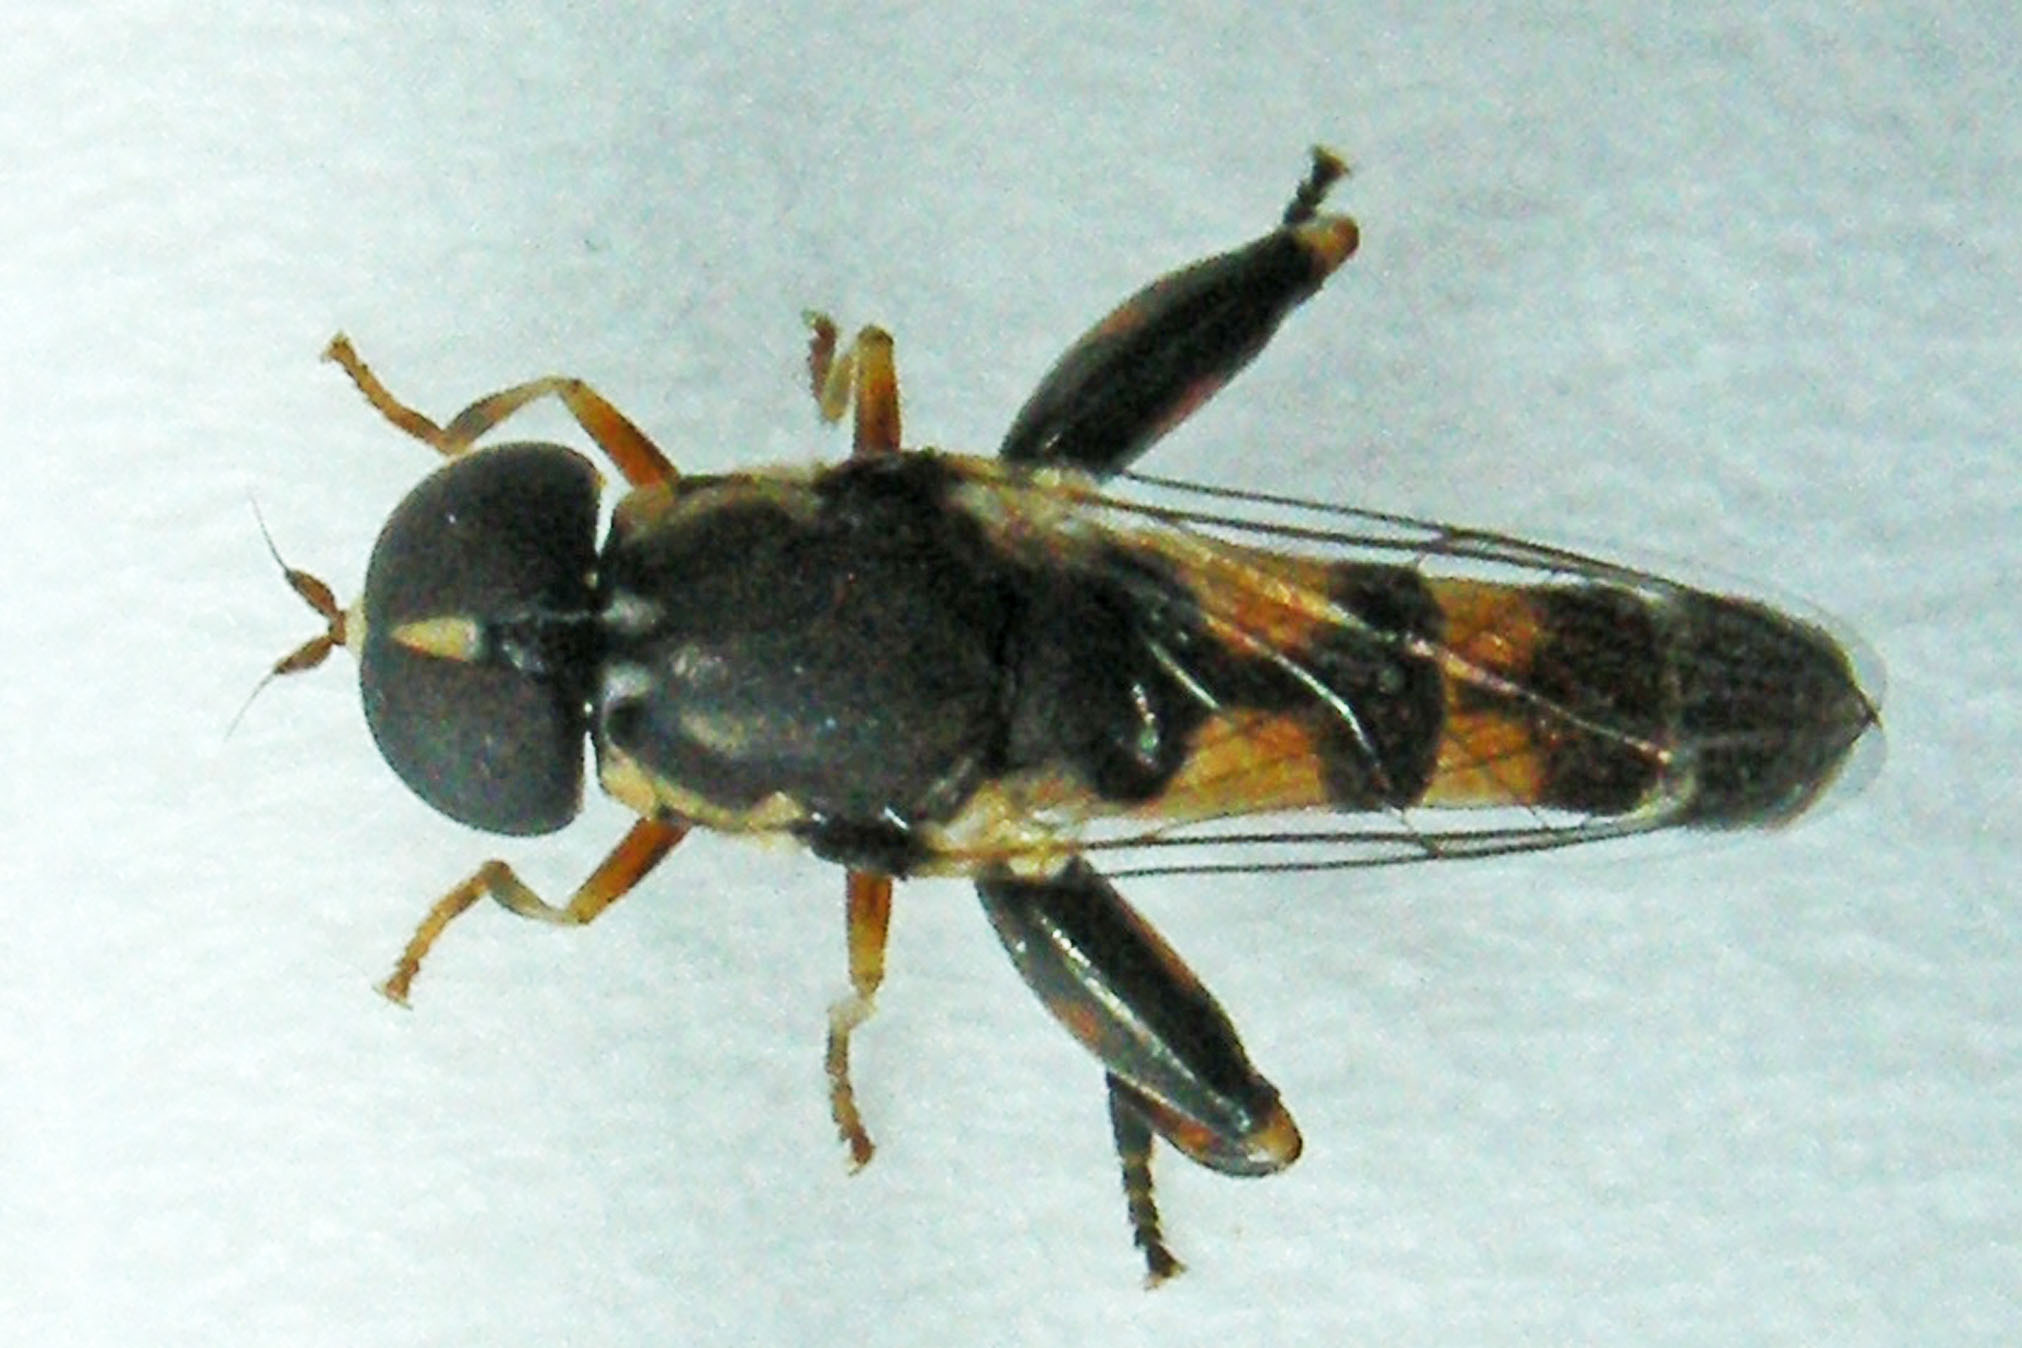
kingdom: Animalia
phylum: Arthropoda
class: Insecta
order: Diptera
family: Syrphidae
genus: Syritta
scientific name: Syritta pipiens
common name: Hover fly
